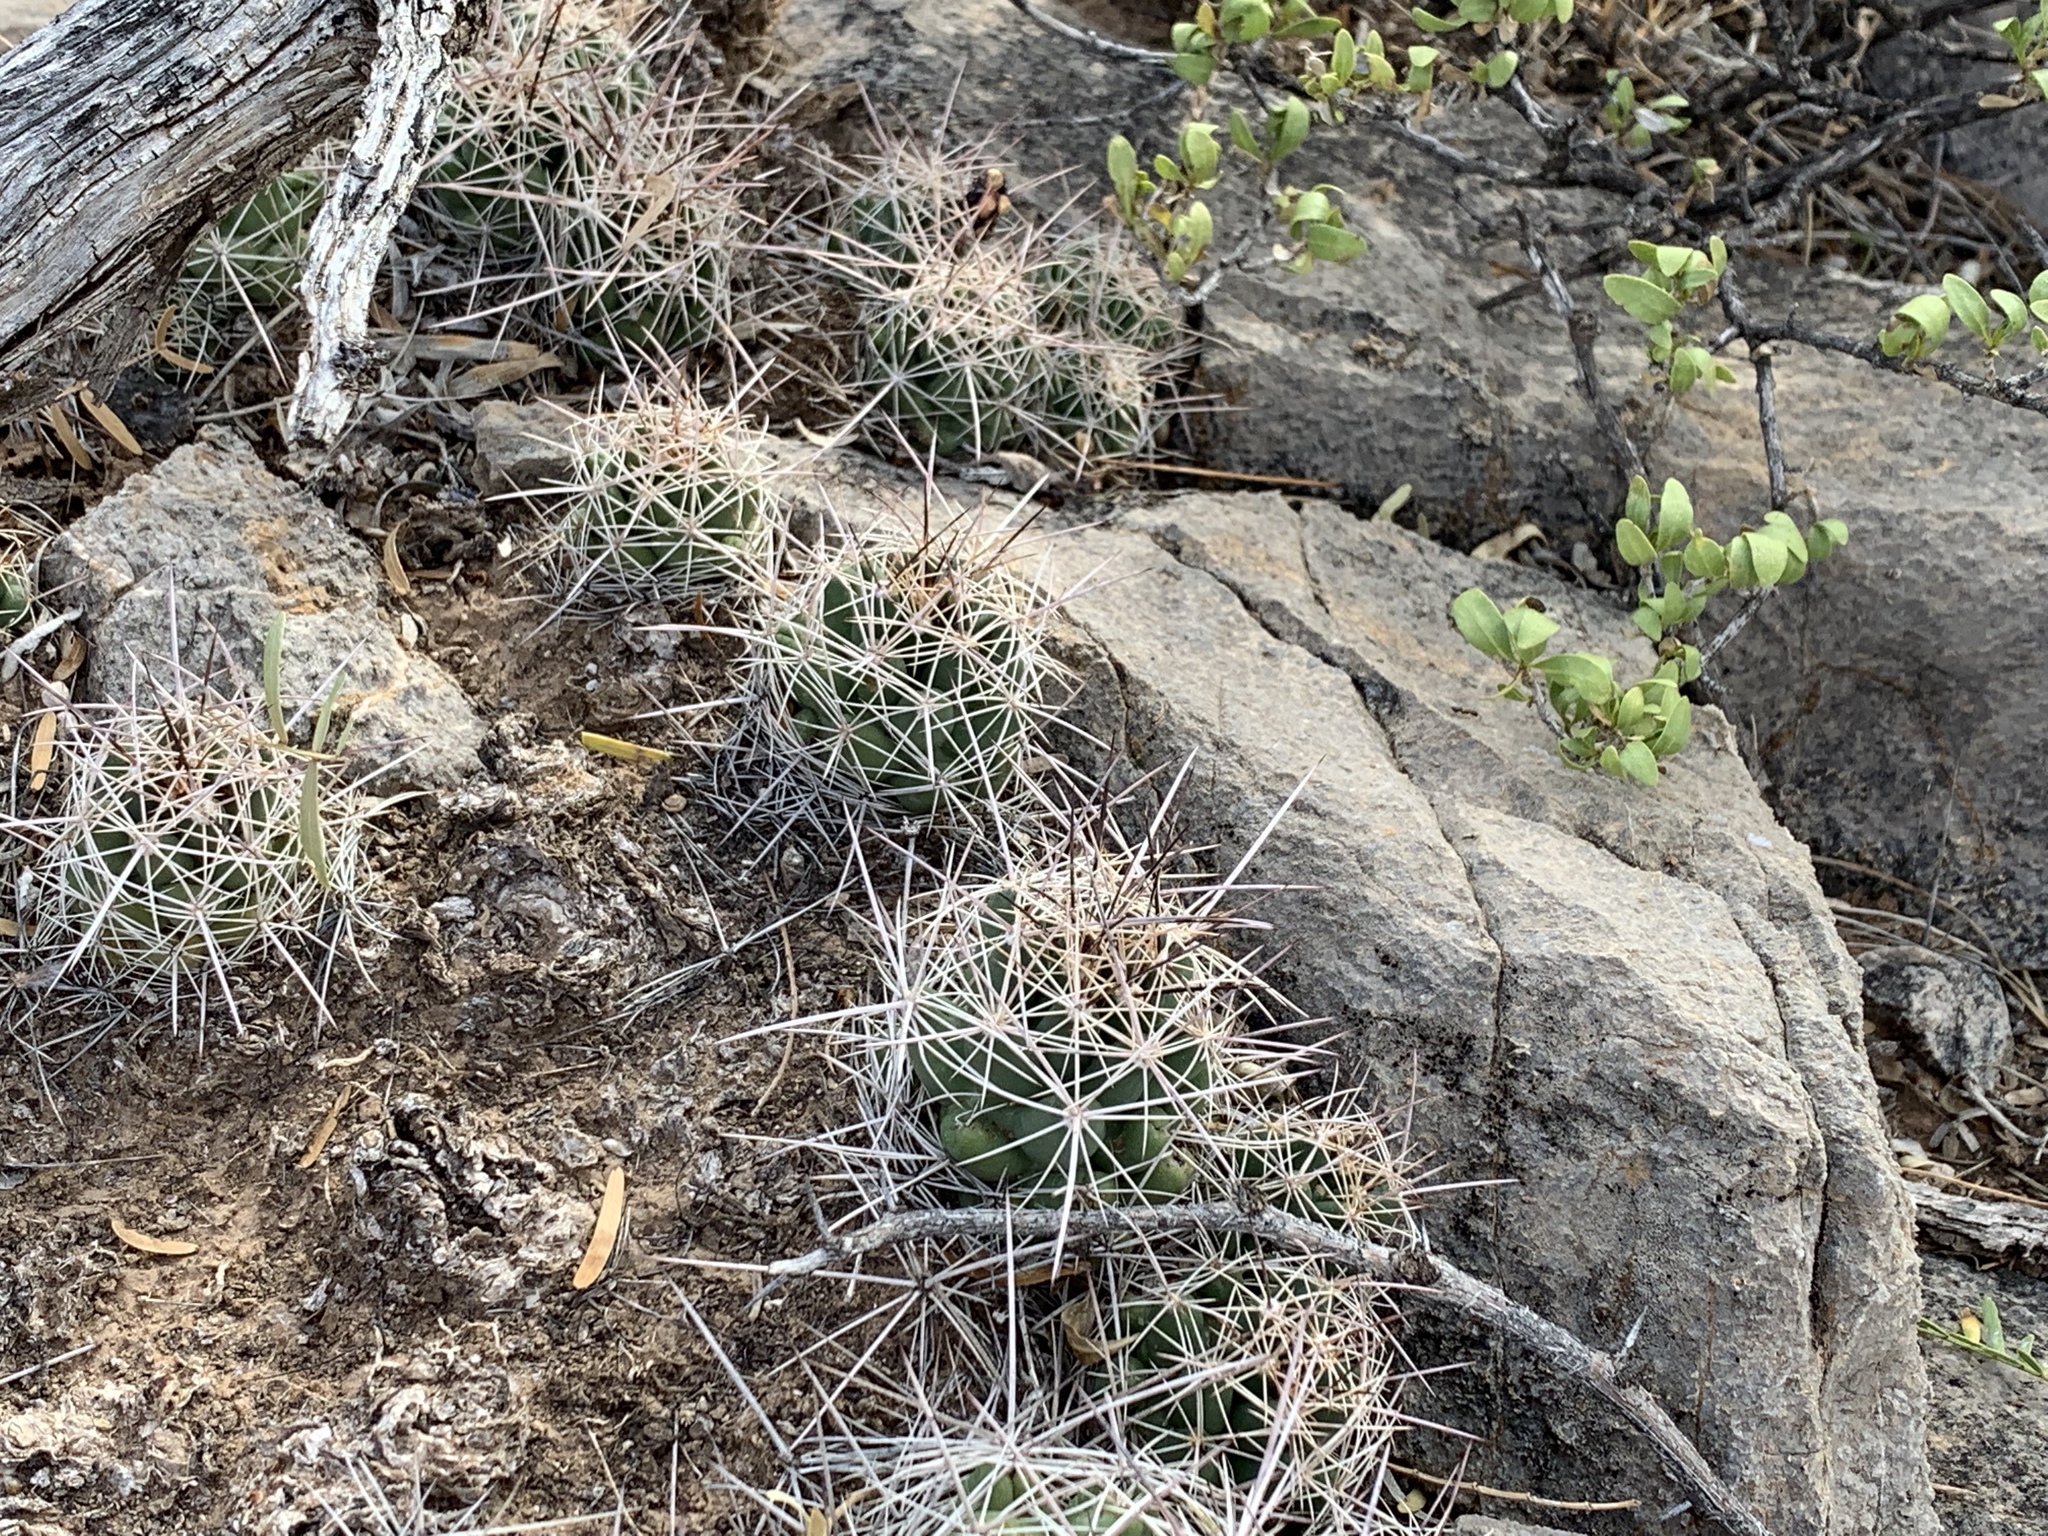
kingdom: Plantae
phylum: Tracheophyta
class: Magnoliopsida
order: Caryophyllales
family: Cactaceae
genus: Coryphantha
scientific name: Coryphantha macromeris
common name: Nipple beehive cactus
